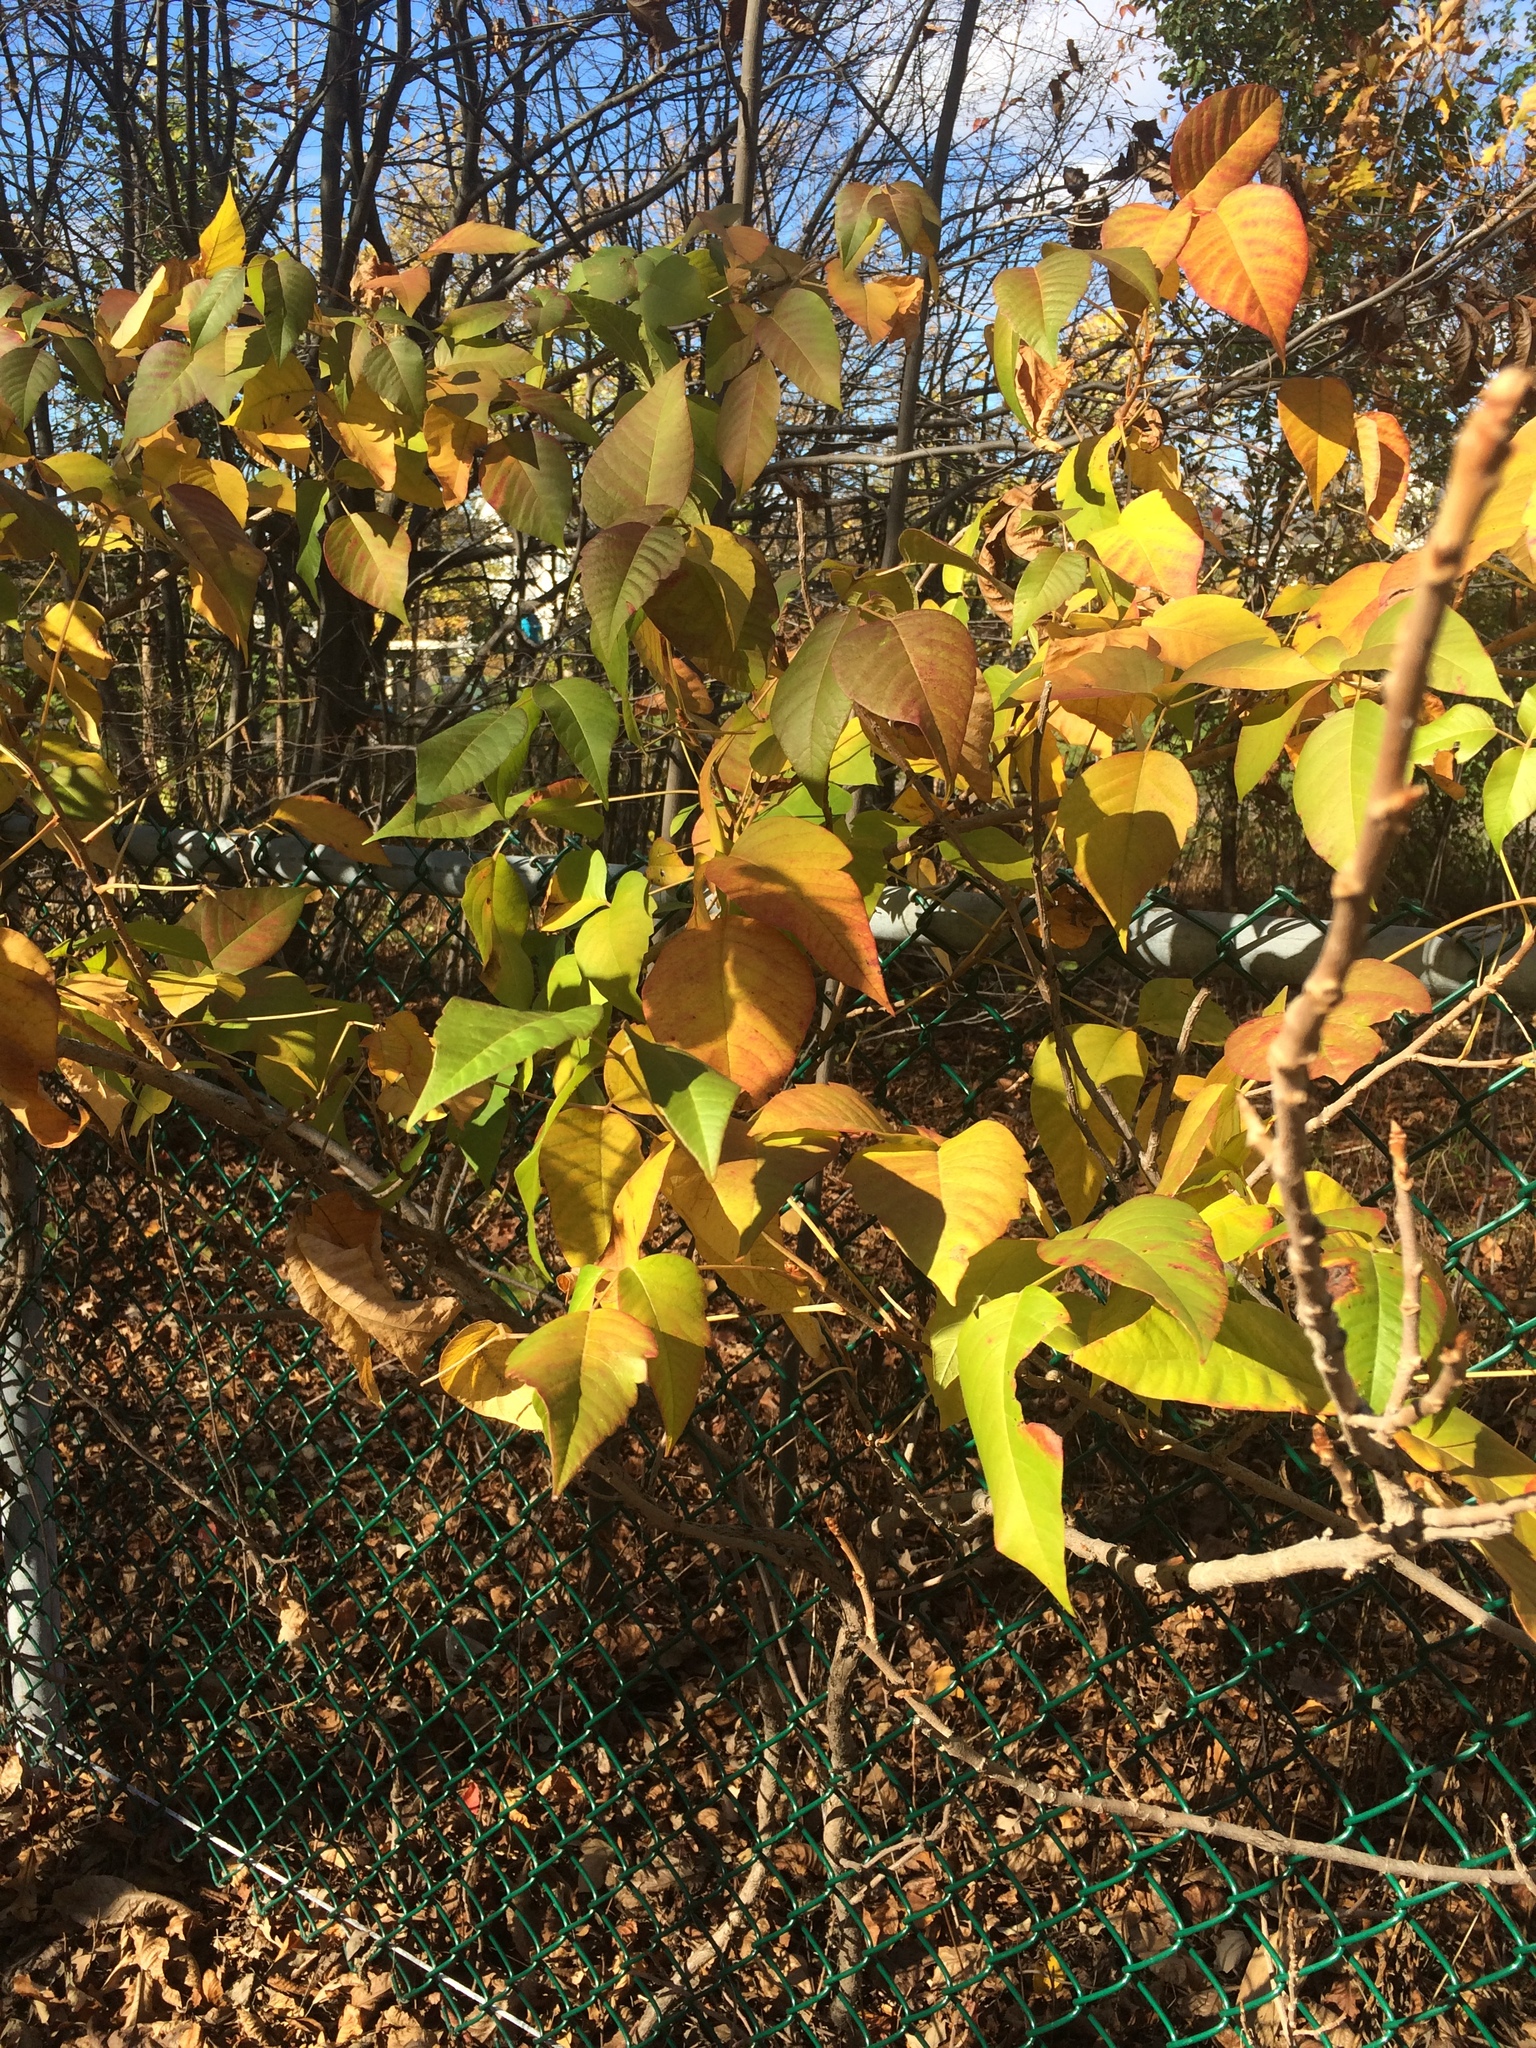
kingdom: Plantae
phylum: Tracheophyta
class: Magnoliopsida
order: Sapindales
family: Anacardiaceae
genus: Toxicodendron
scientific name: Toxicodendron rydbergii
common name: Rydberg's poison-ivy
